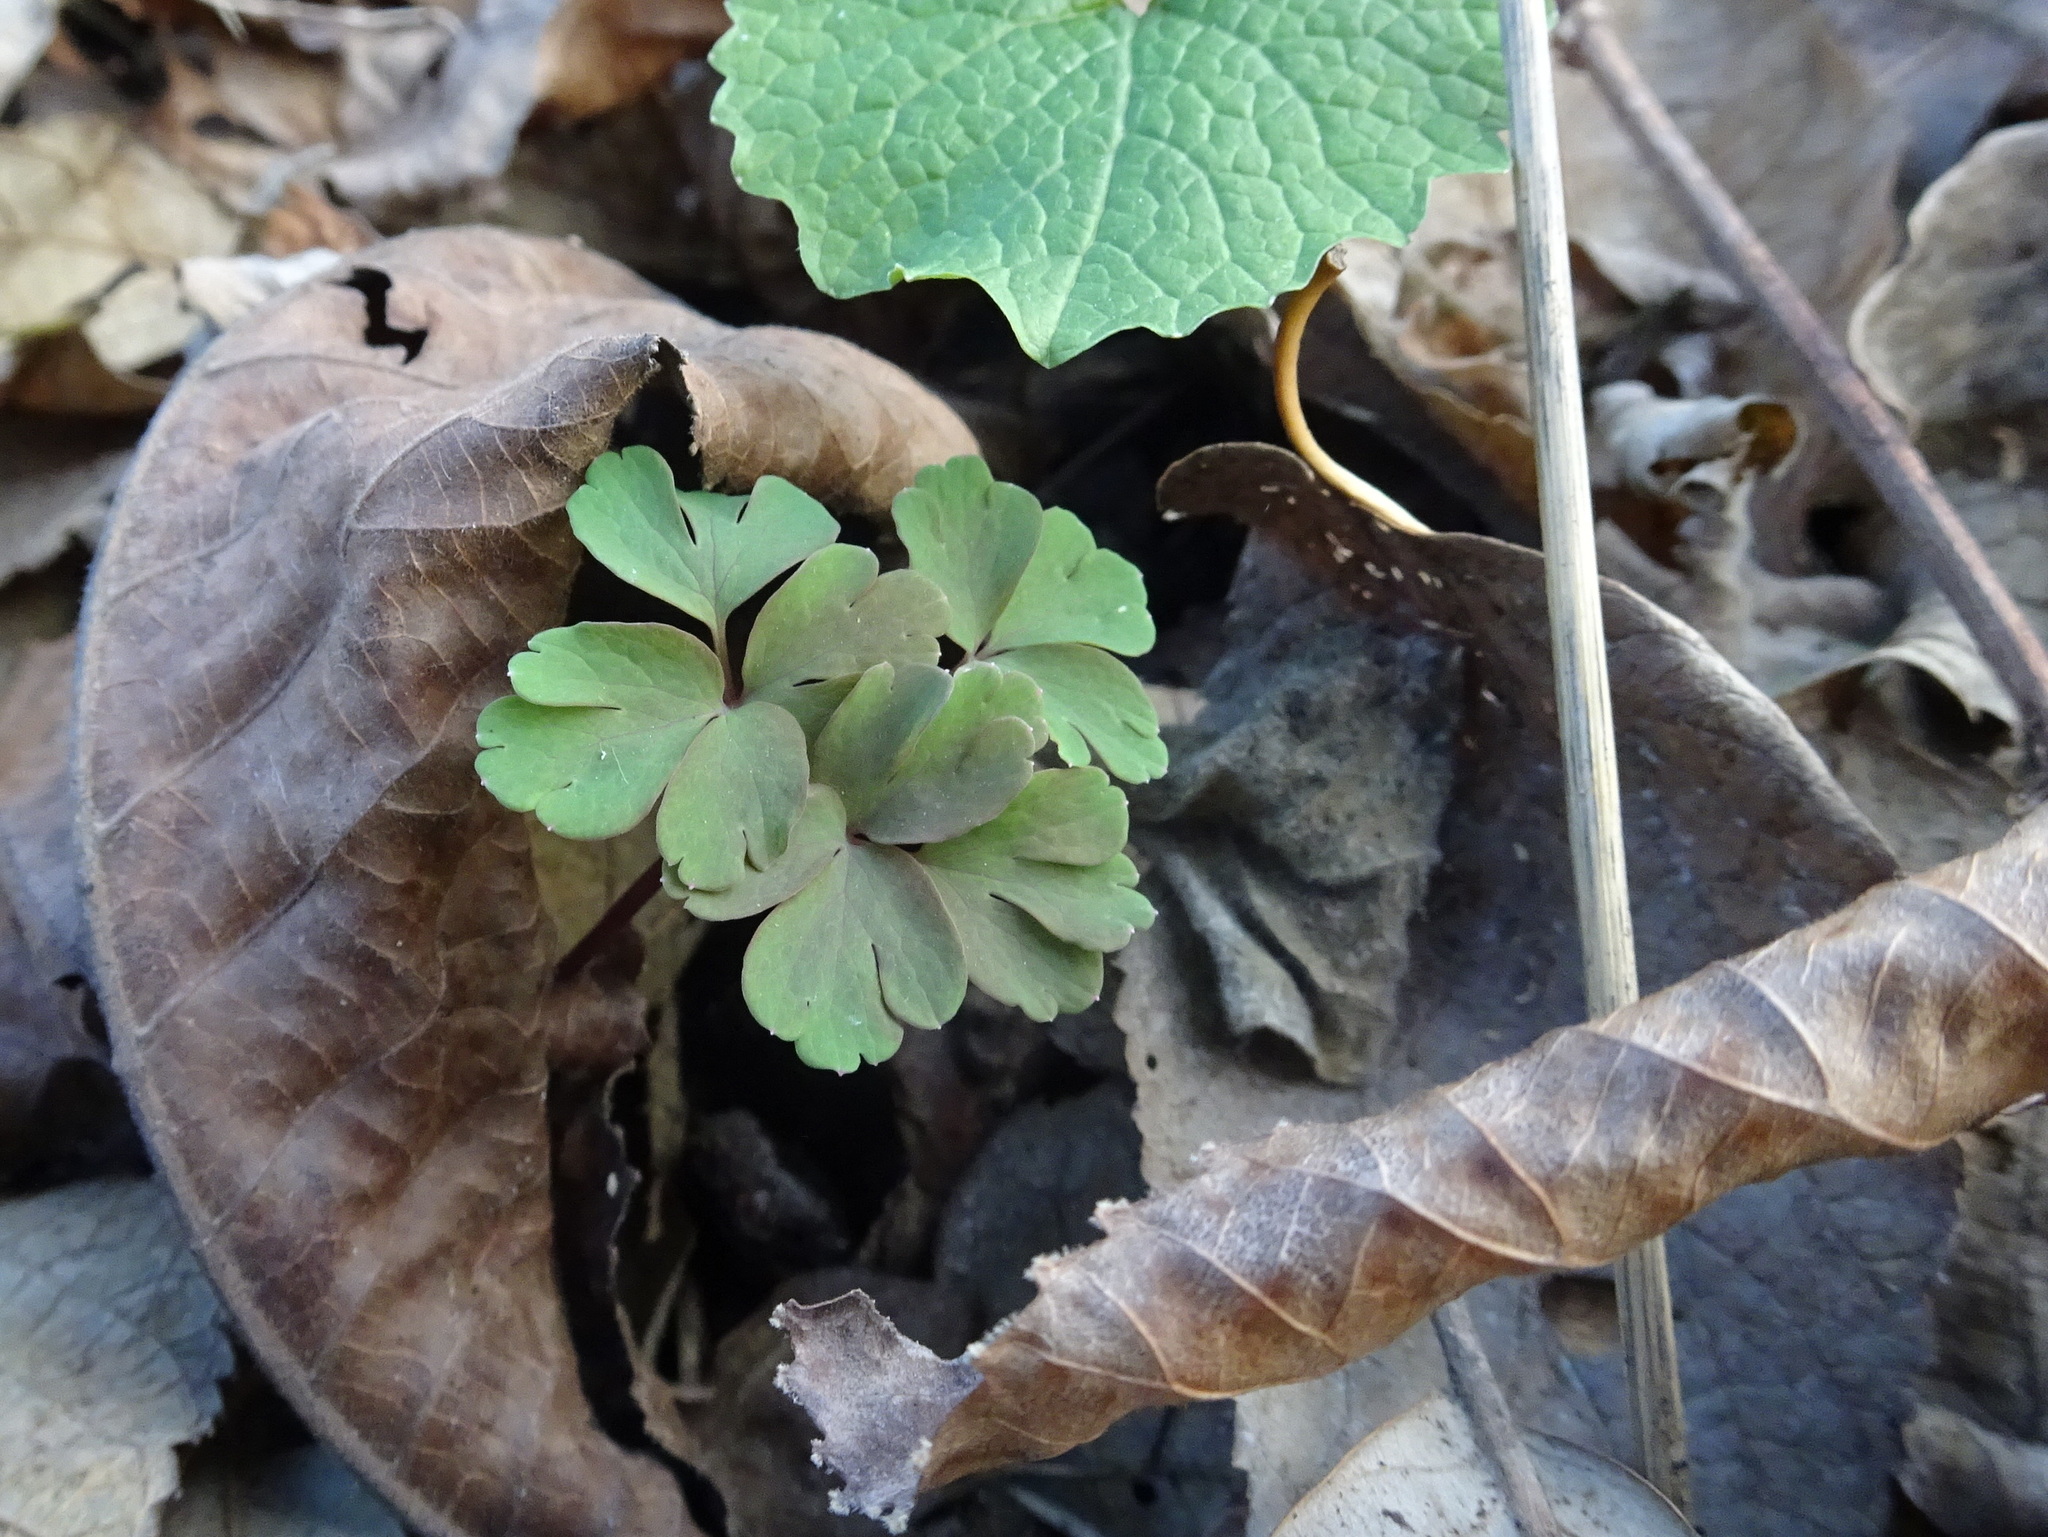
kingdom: Plantae
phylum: Tracheophyta
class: Magnoliopsida
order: Ranunculales
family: Ranunculaceae
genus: Enemion
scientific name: Enemion biternatum
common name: Eastern false rue-anemone
